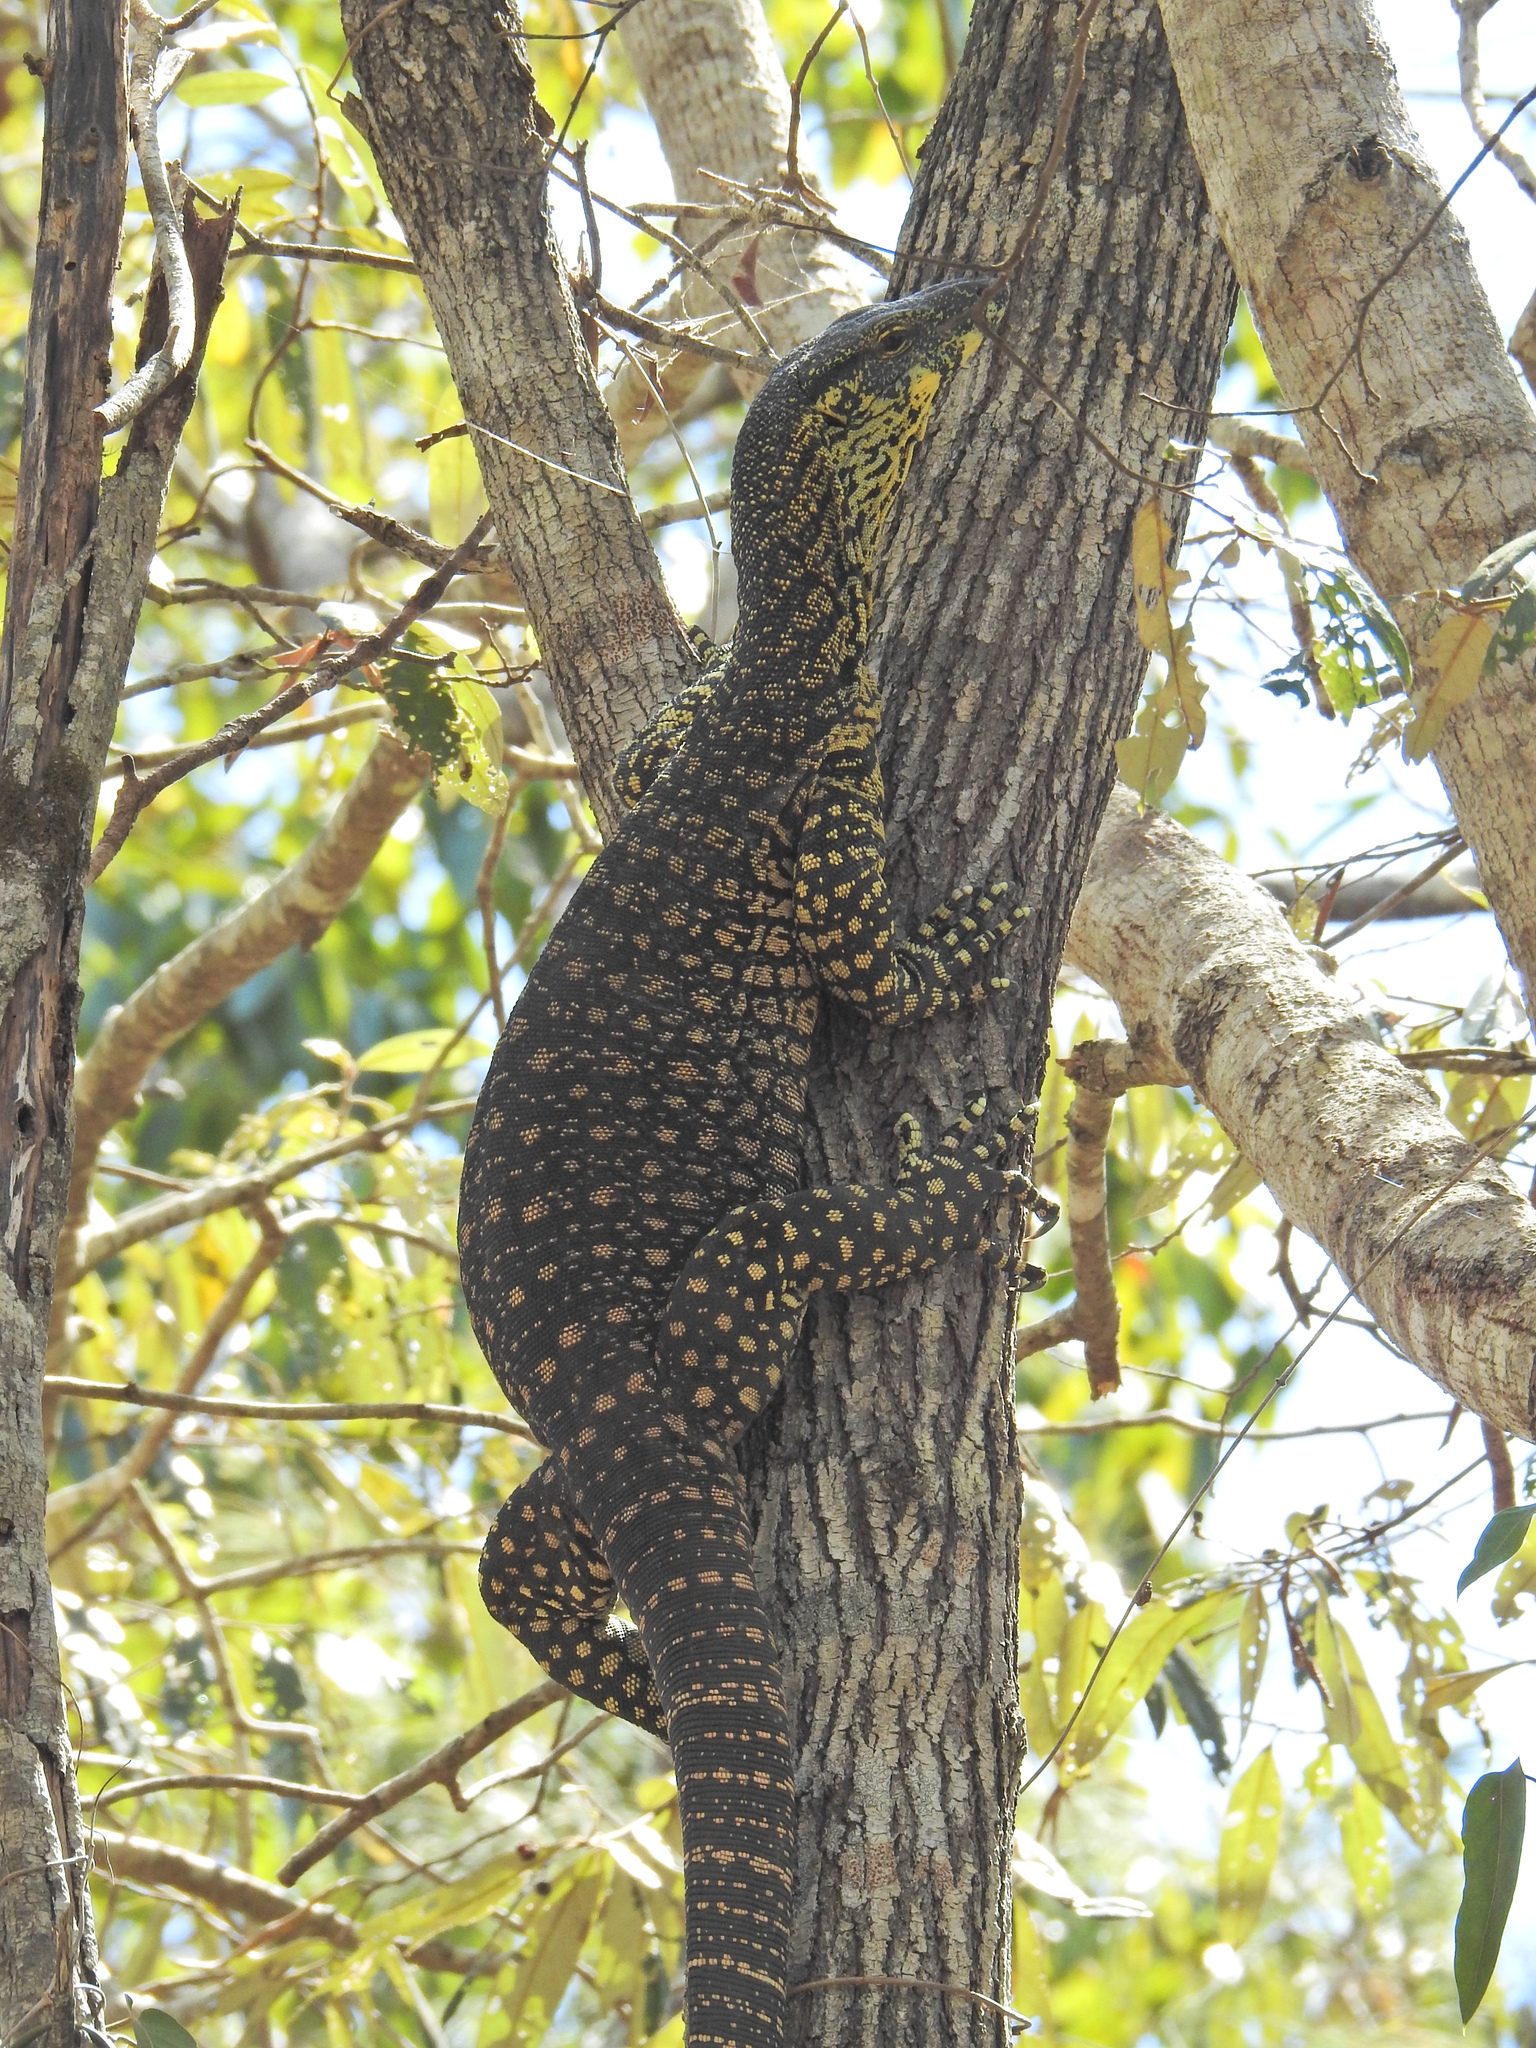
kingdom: Animalia
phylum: Chordata
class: Squamata
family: Varanidae
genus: Varanus
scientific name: Varanus varius
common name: Lace monitor
